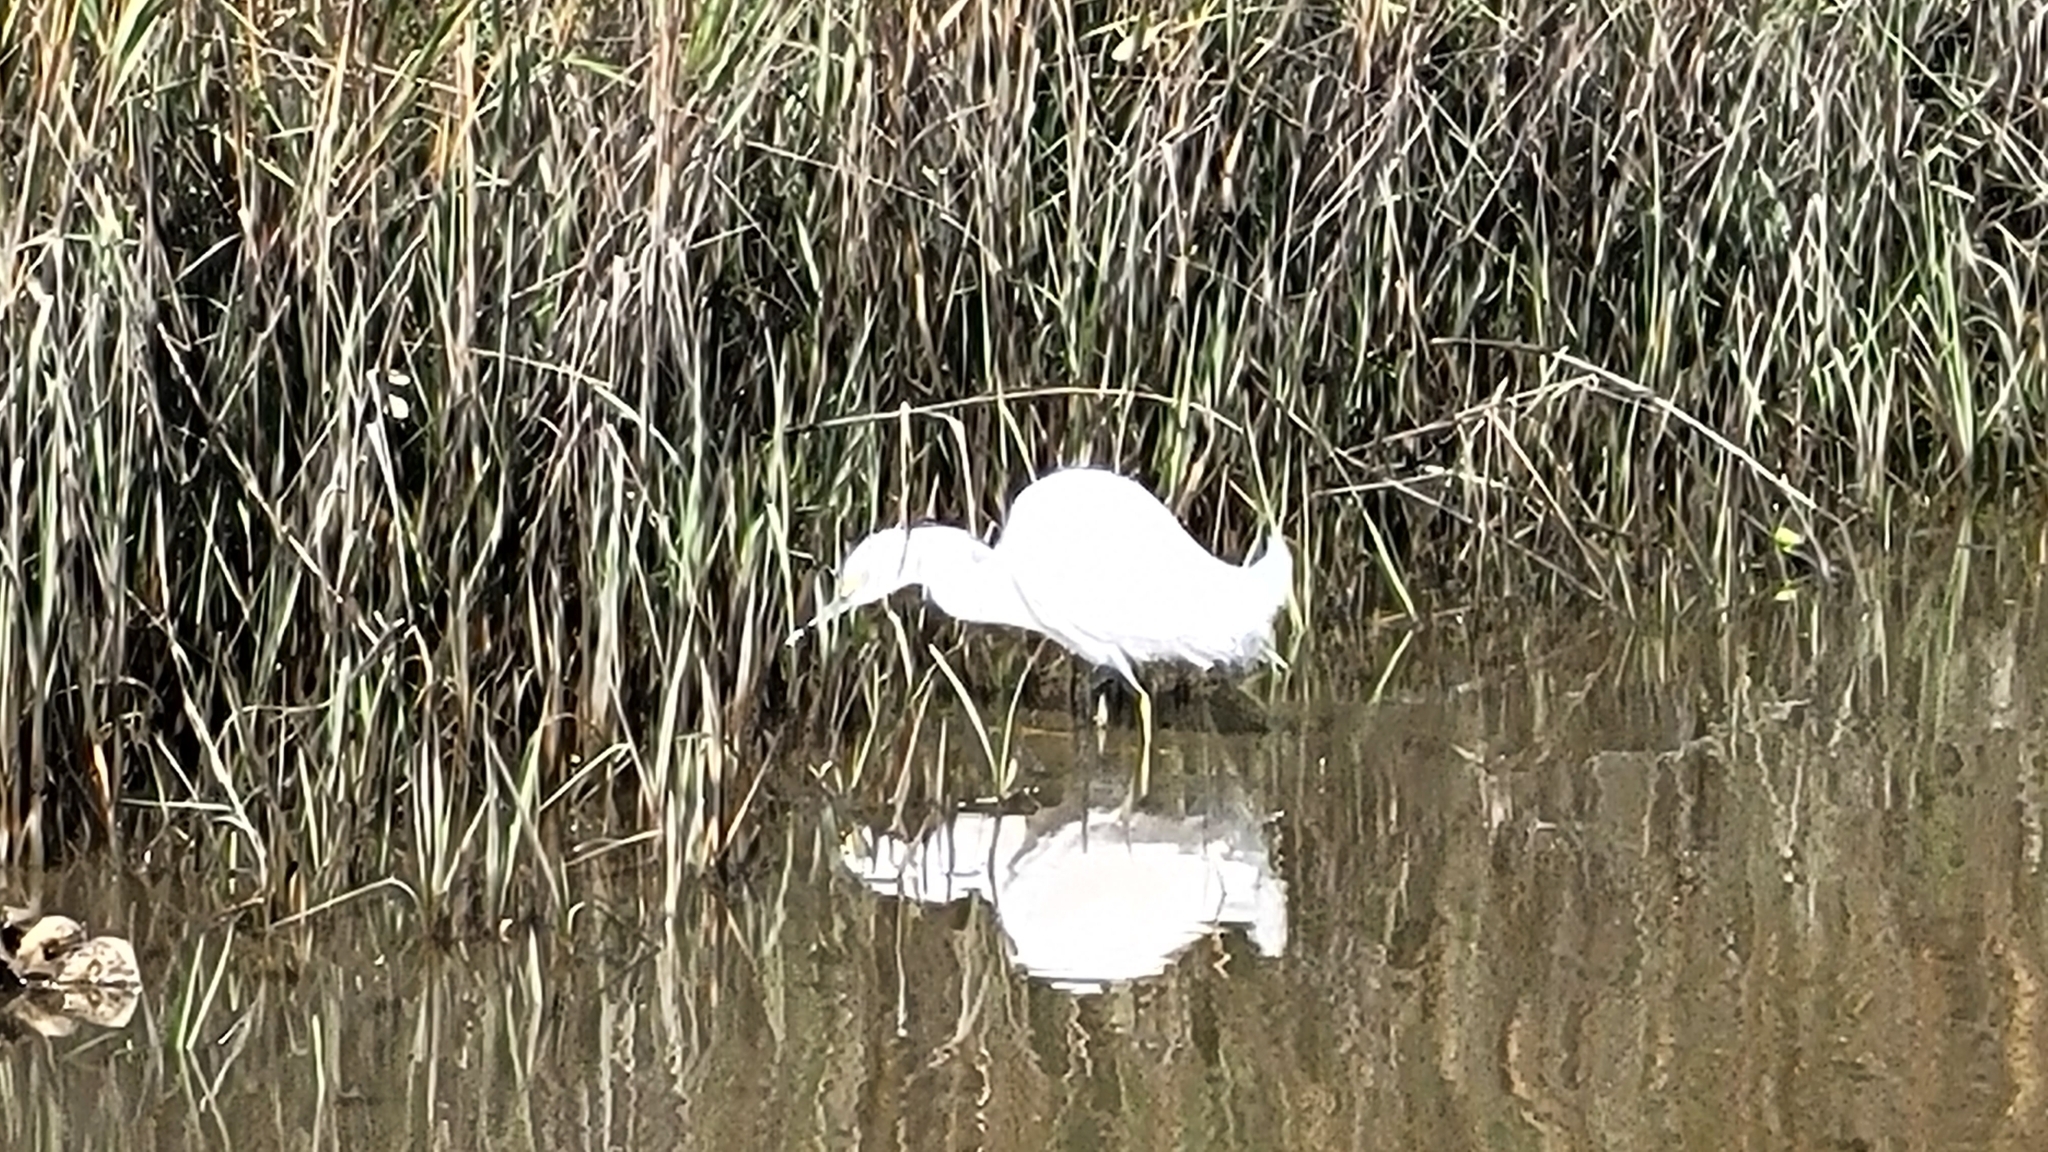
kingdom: Animalia
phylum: Chordata
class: Aves
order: Pelecaniformes
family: Ardeidae
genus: Egretta
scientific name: Egretta thula
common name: Snowy egret
